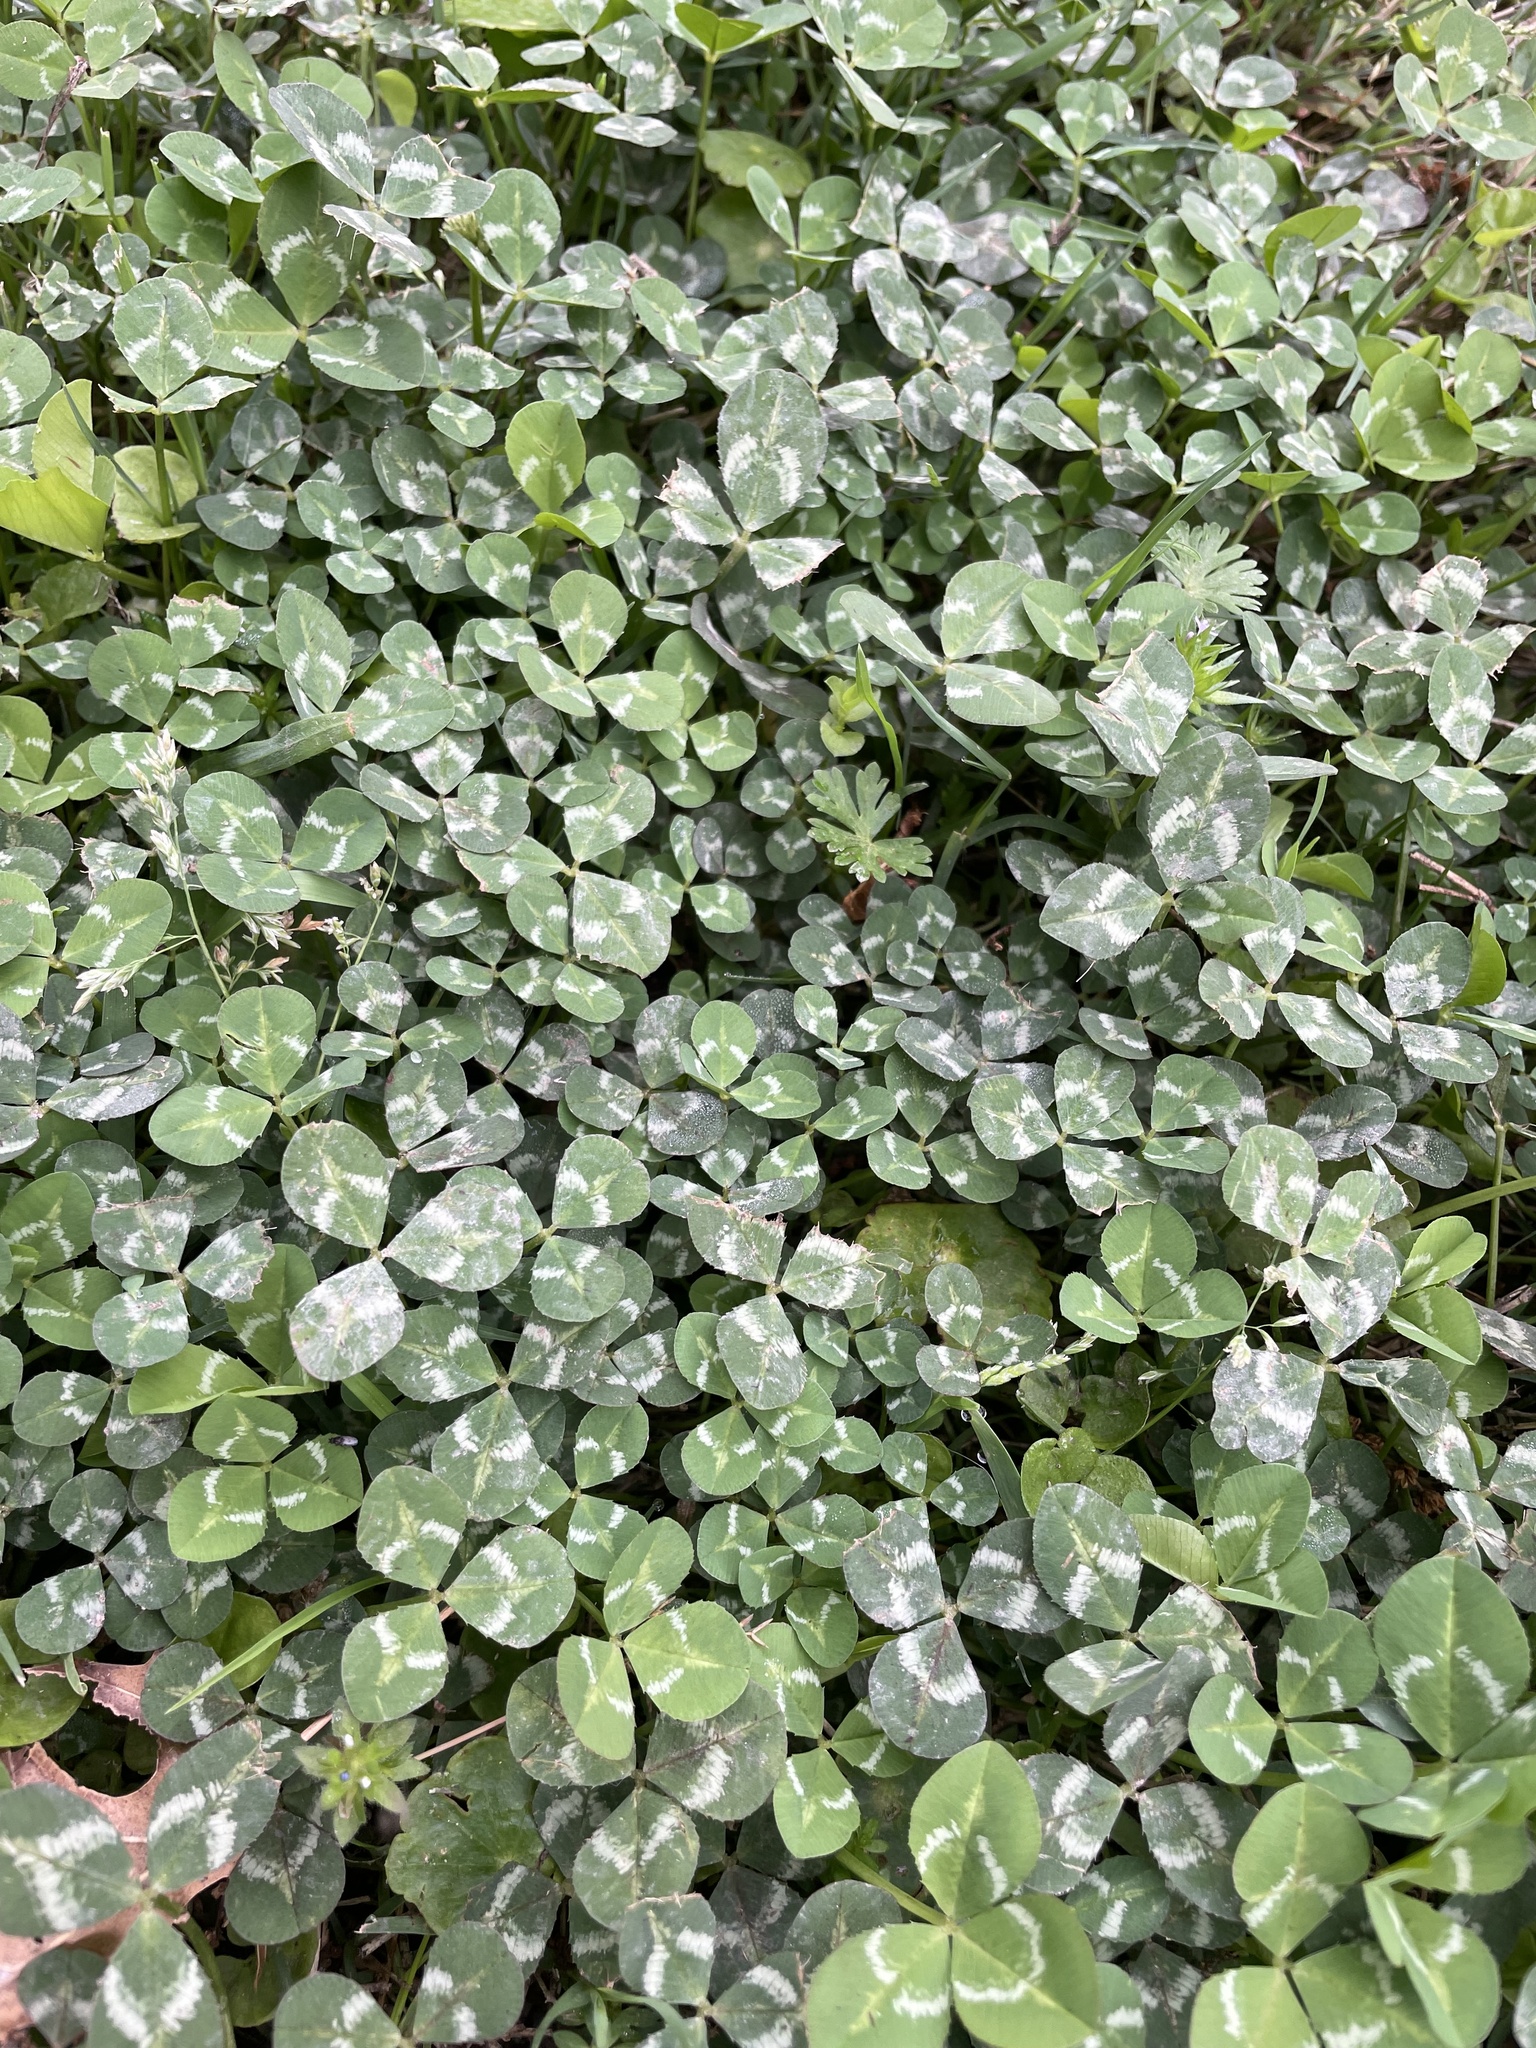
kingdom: Plantae
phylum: Tracheophyta
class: Magnoliopsida
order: Fabales
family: Fabaceae
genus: Trifolium
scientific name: Trifolium repens
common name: White clover
